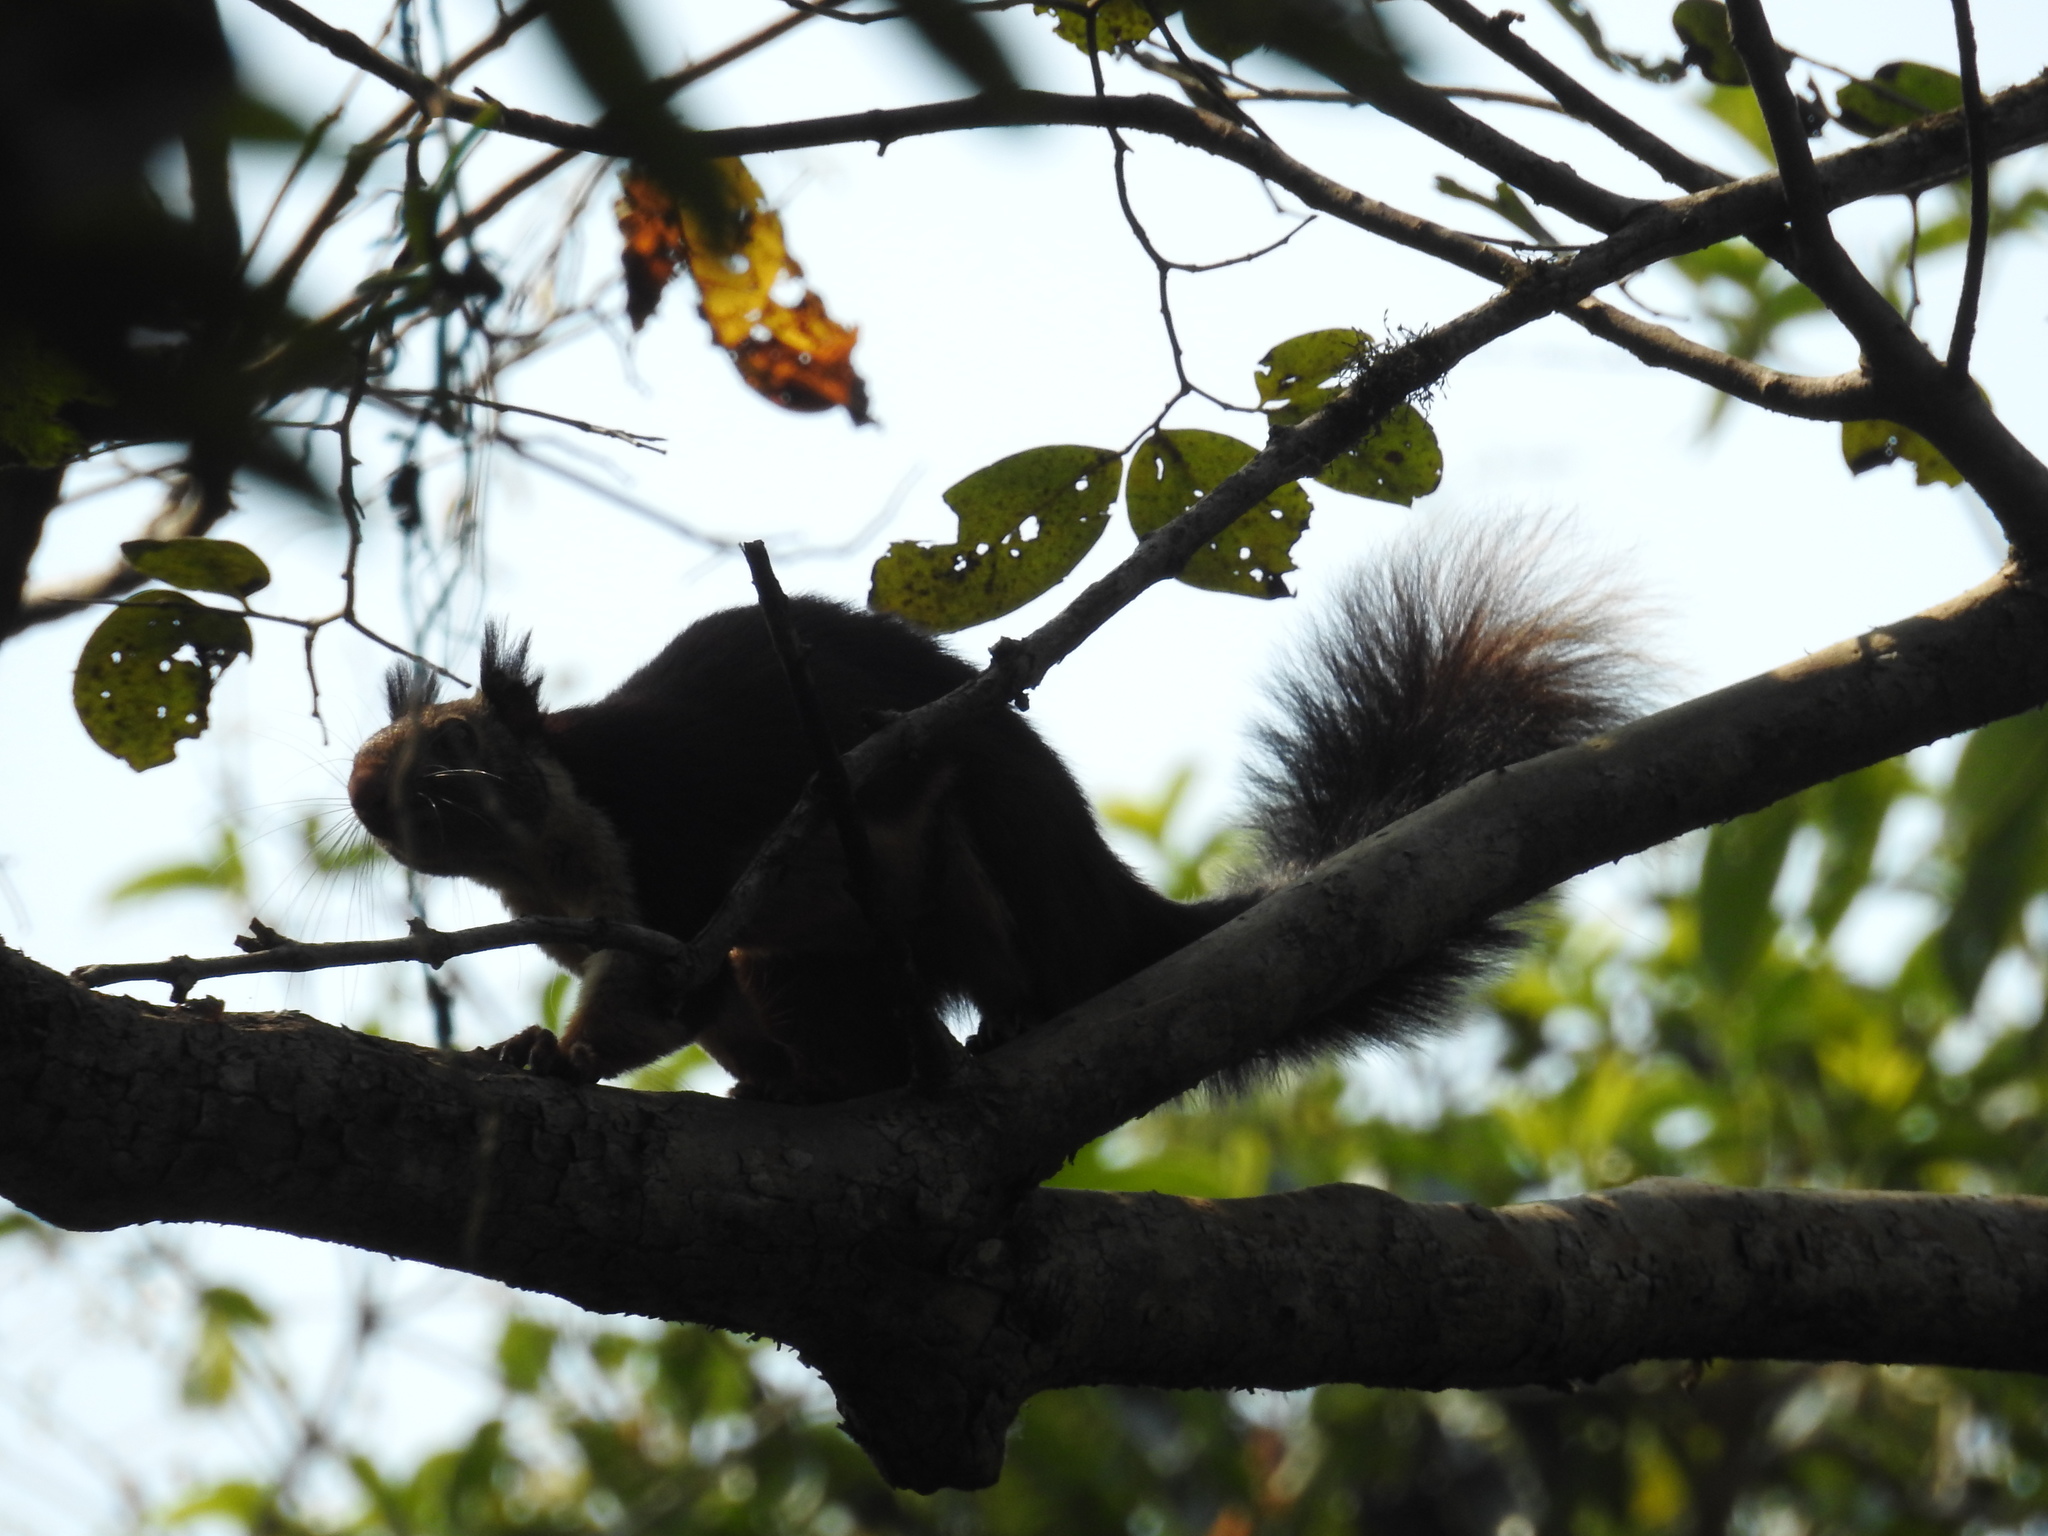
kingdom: Animalia
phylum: Chordata
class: Mammalia
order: Rodentia
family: Sciuridae
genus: Ratufa
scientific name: Ratufa indica
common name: Indian giant squirrel
